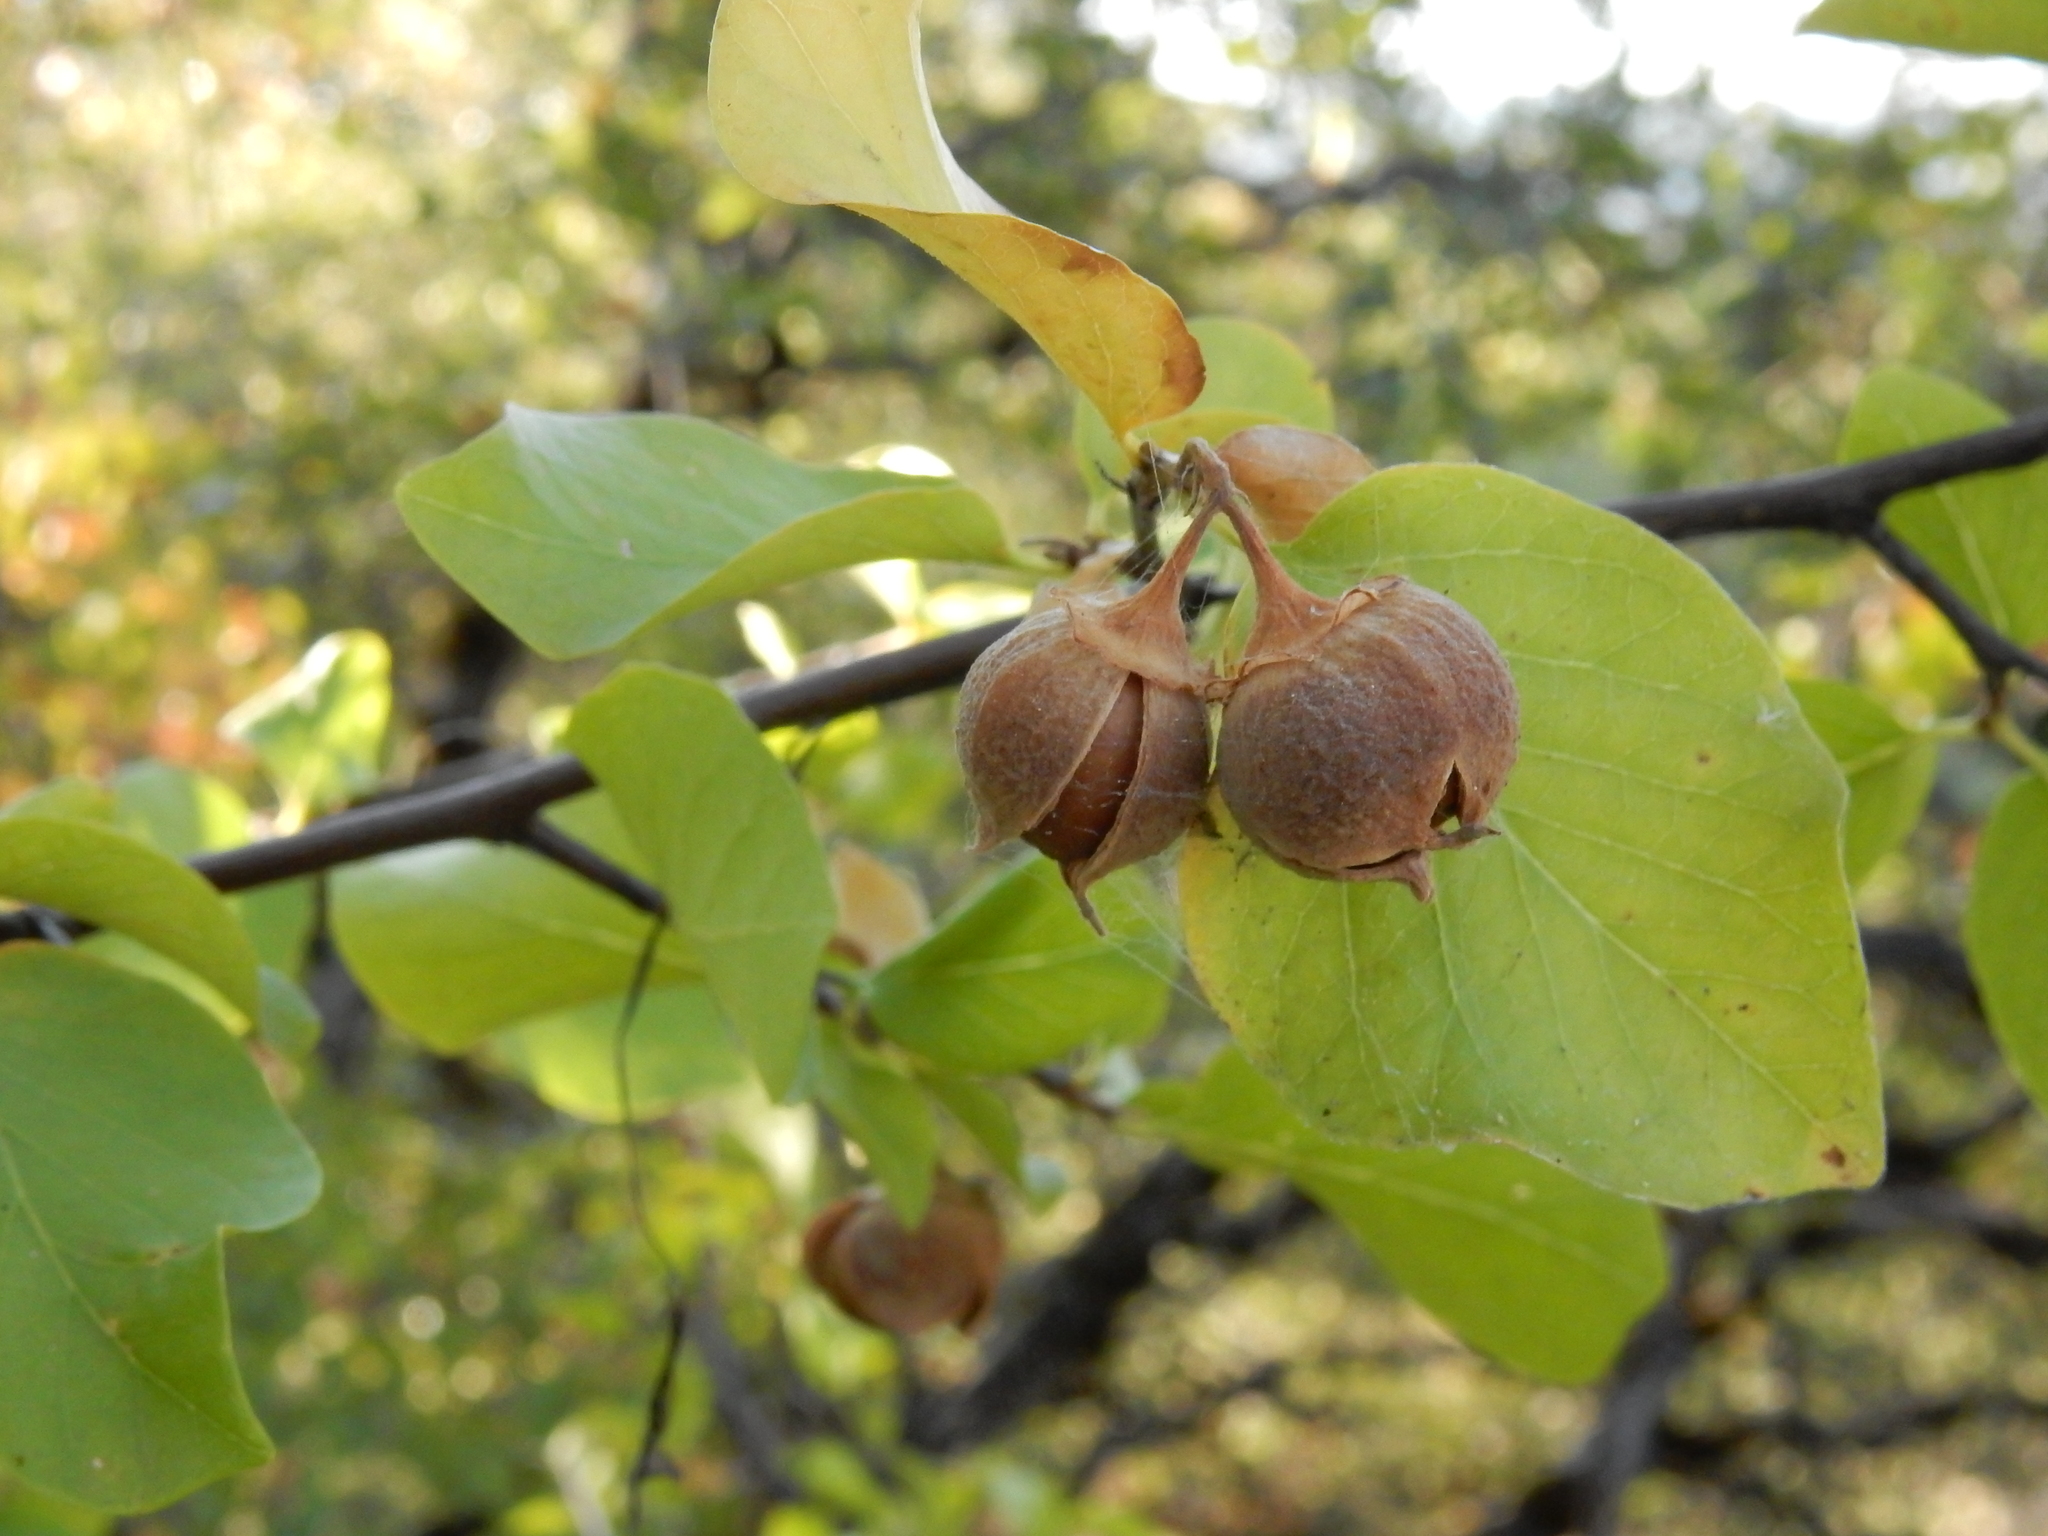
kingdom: Plantae
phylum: Tracheophyta
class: Magnoliopsida
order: Ericales
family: Styracaceae
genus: Styrax
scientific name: Styrax redivivus
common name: California styrax
